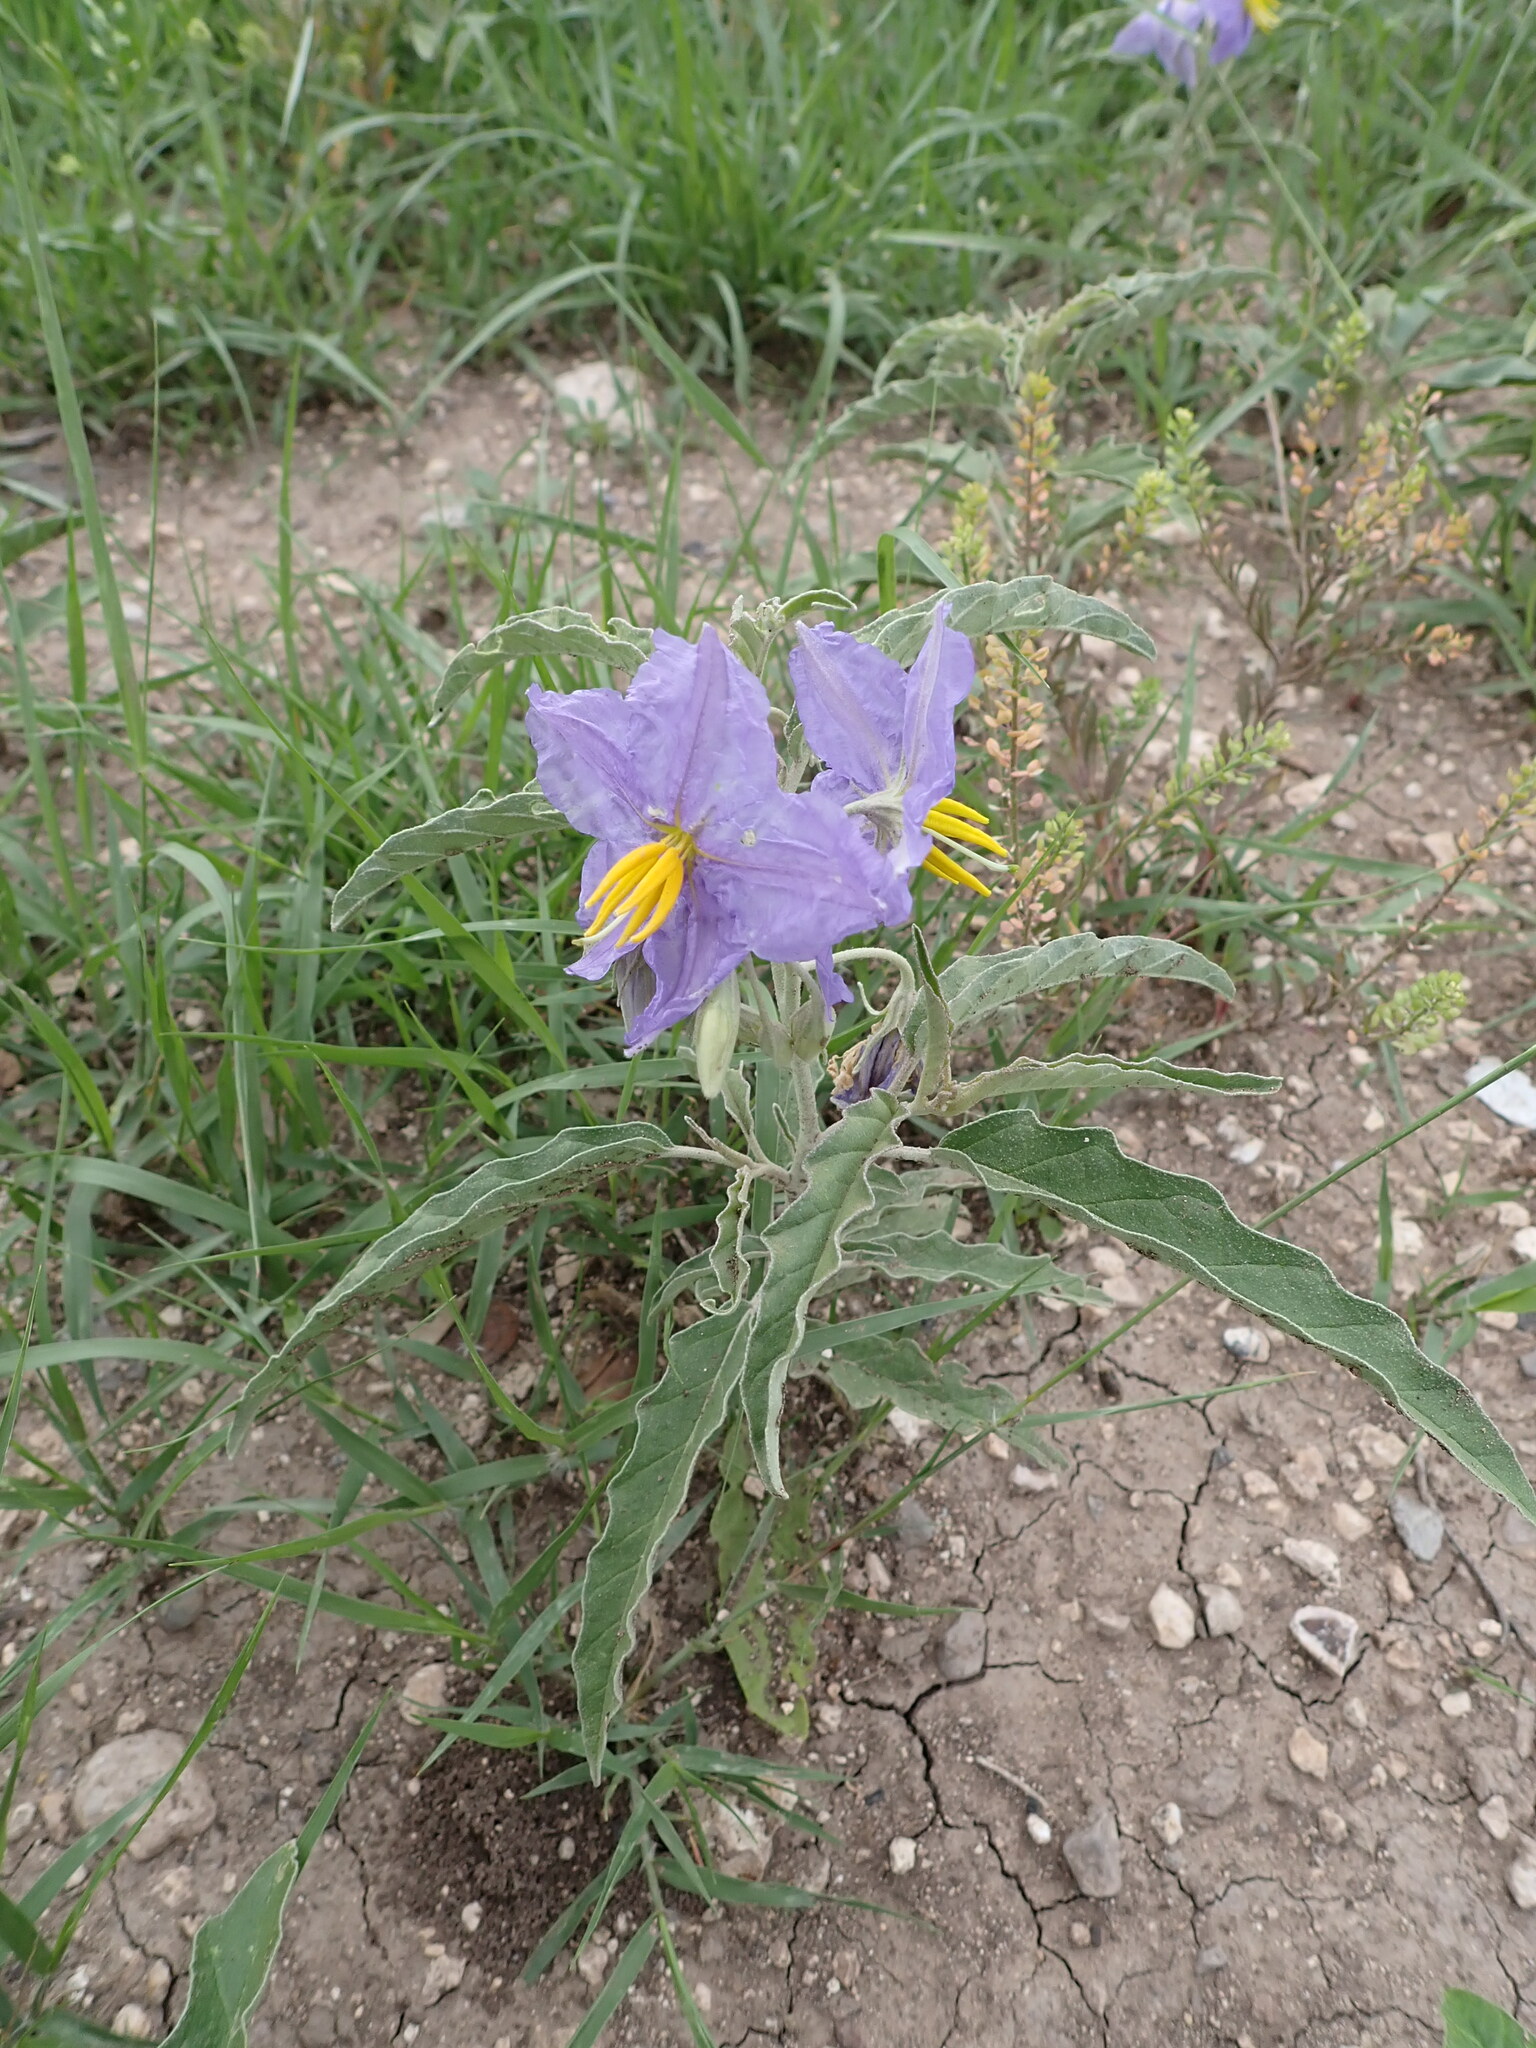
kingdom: Plantae
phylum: Tracheophyta
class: Magnoliopsida
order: Solanales
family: Solanaceae
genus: Solanum
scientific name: Solanum elaeagnifolium
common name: Silverleaf nightshade
